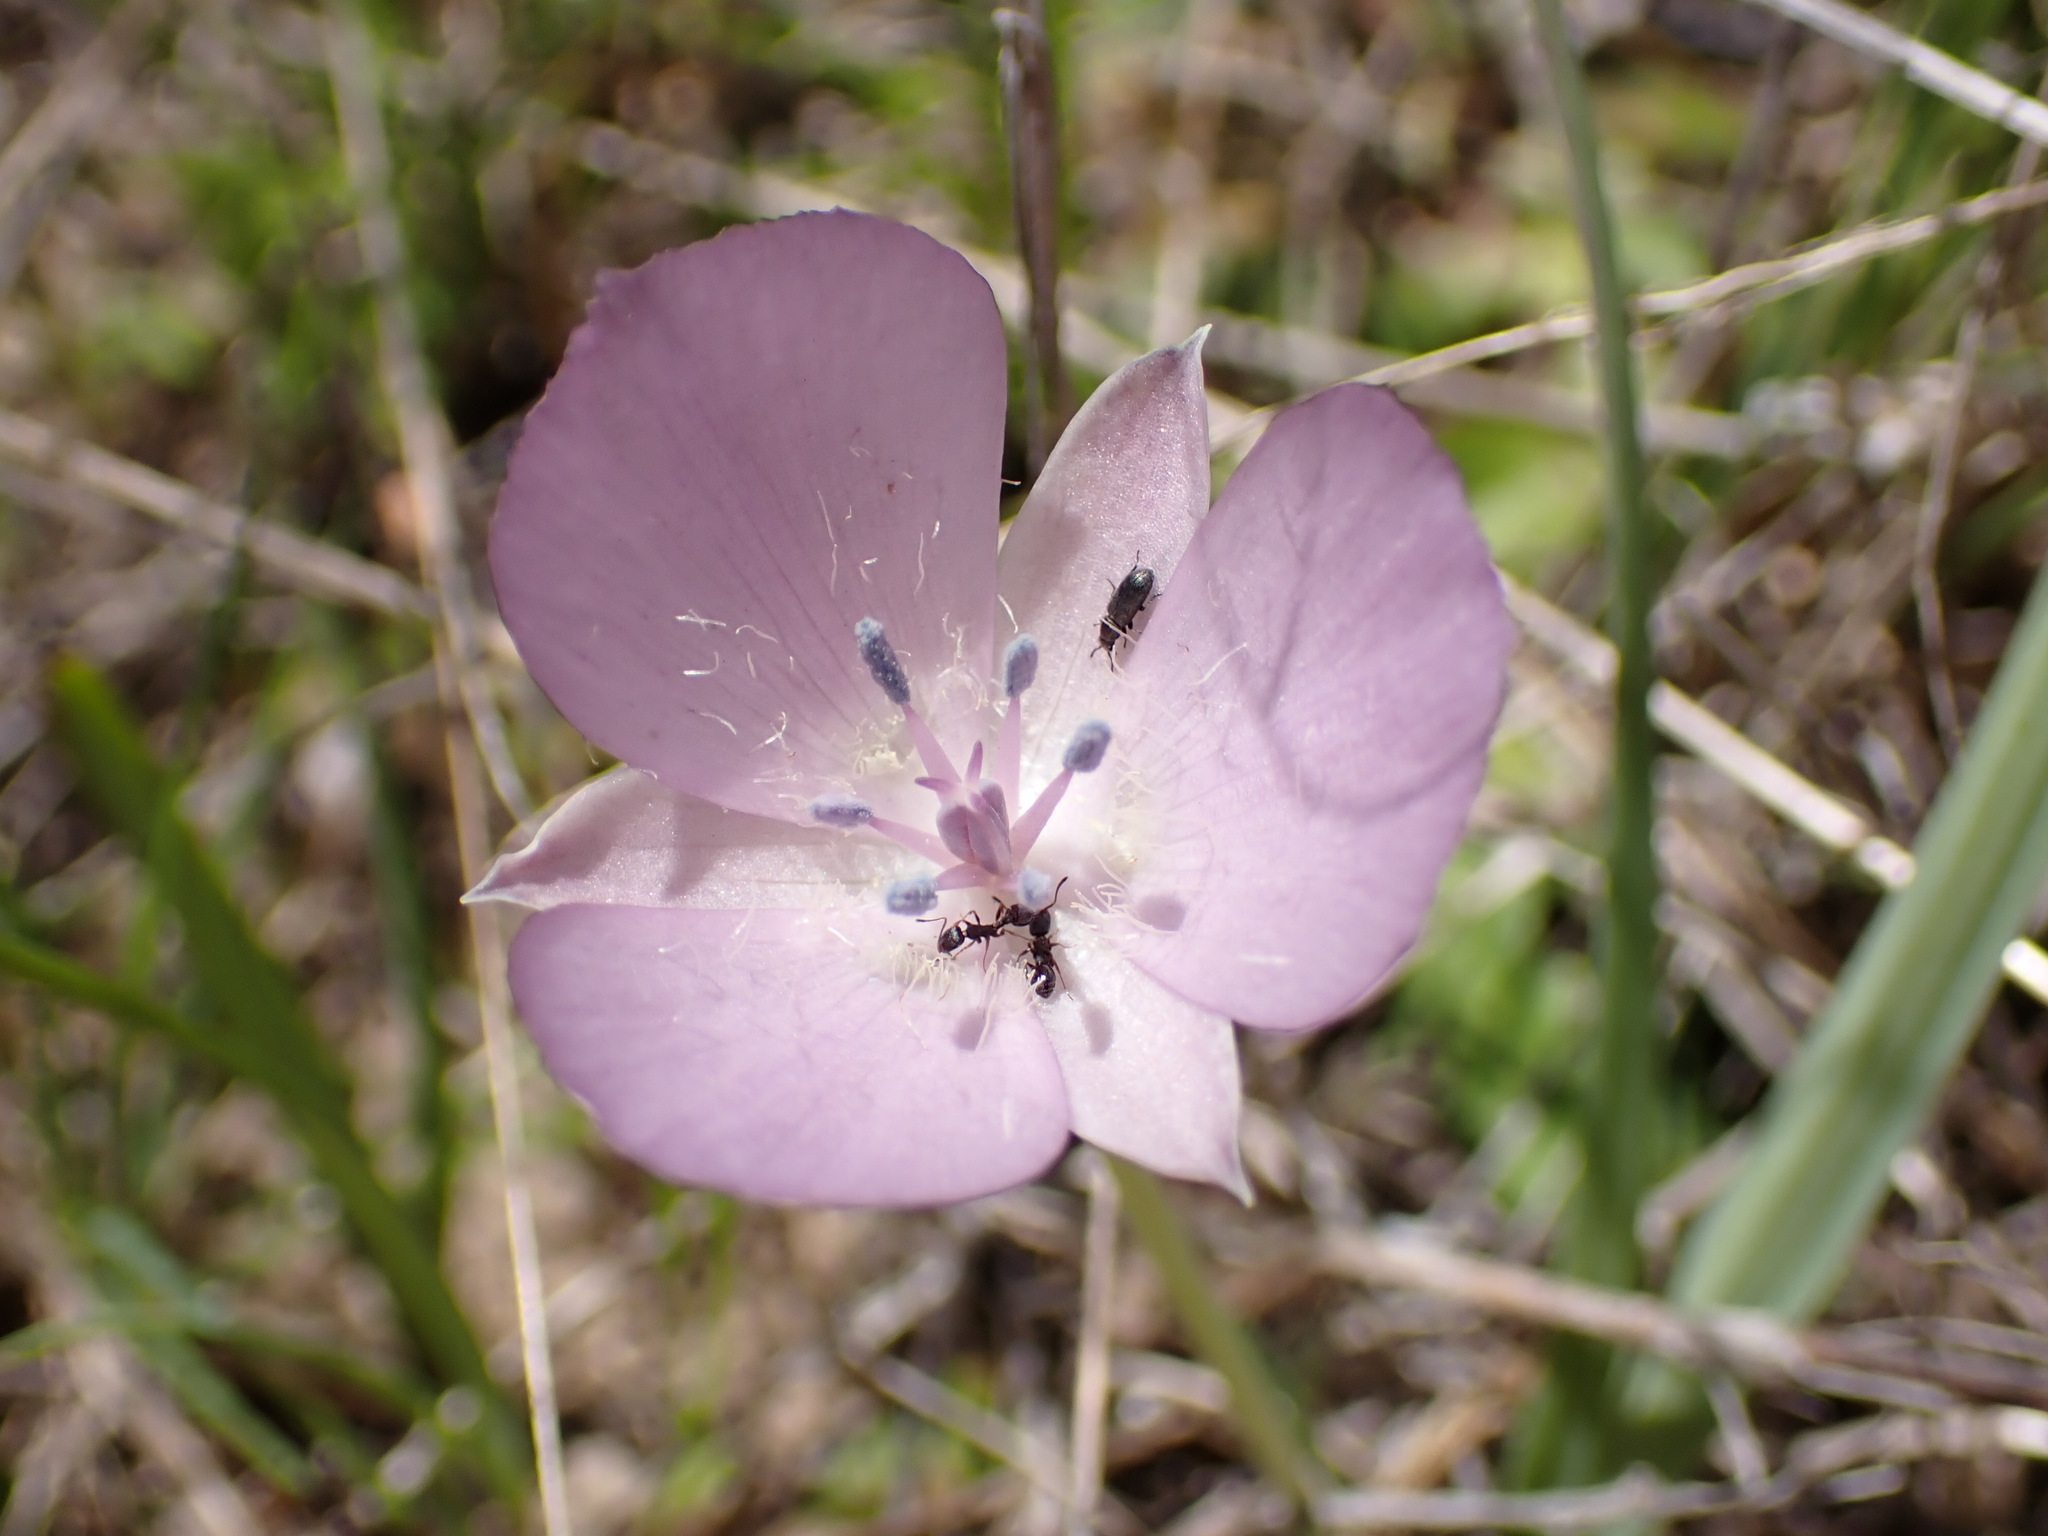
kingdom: Plantae
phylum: Tracheophyta
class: Liliopsida
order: Liliales
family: Liliaceae
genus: Calochortus
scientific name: Calochortus uniflorus
